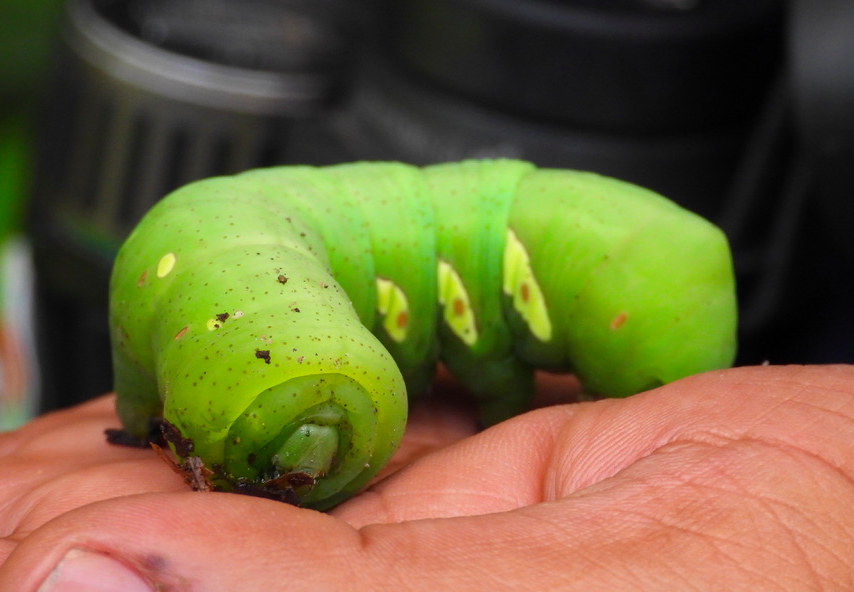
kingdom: Animalia
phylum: Arthropoda
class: Insecta
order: Lepidoptera
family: Sphingidae
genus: Eumorpha
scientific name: Eumorpha anchemolus
